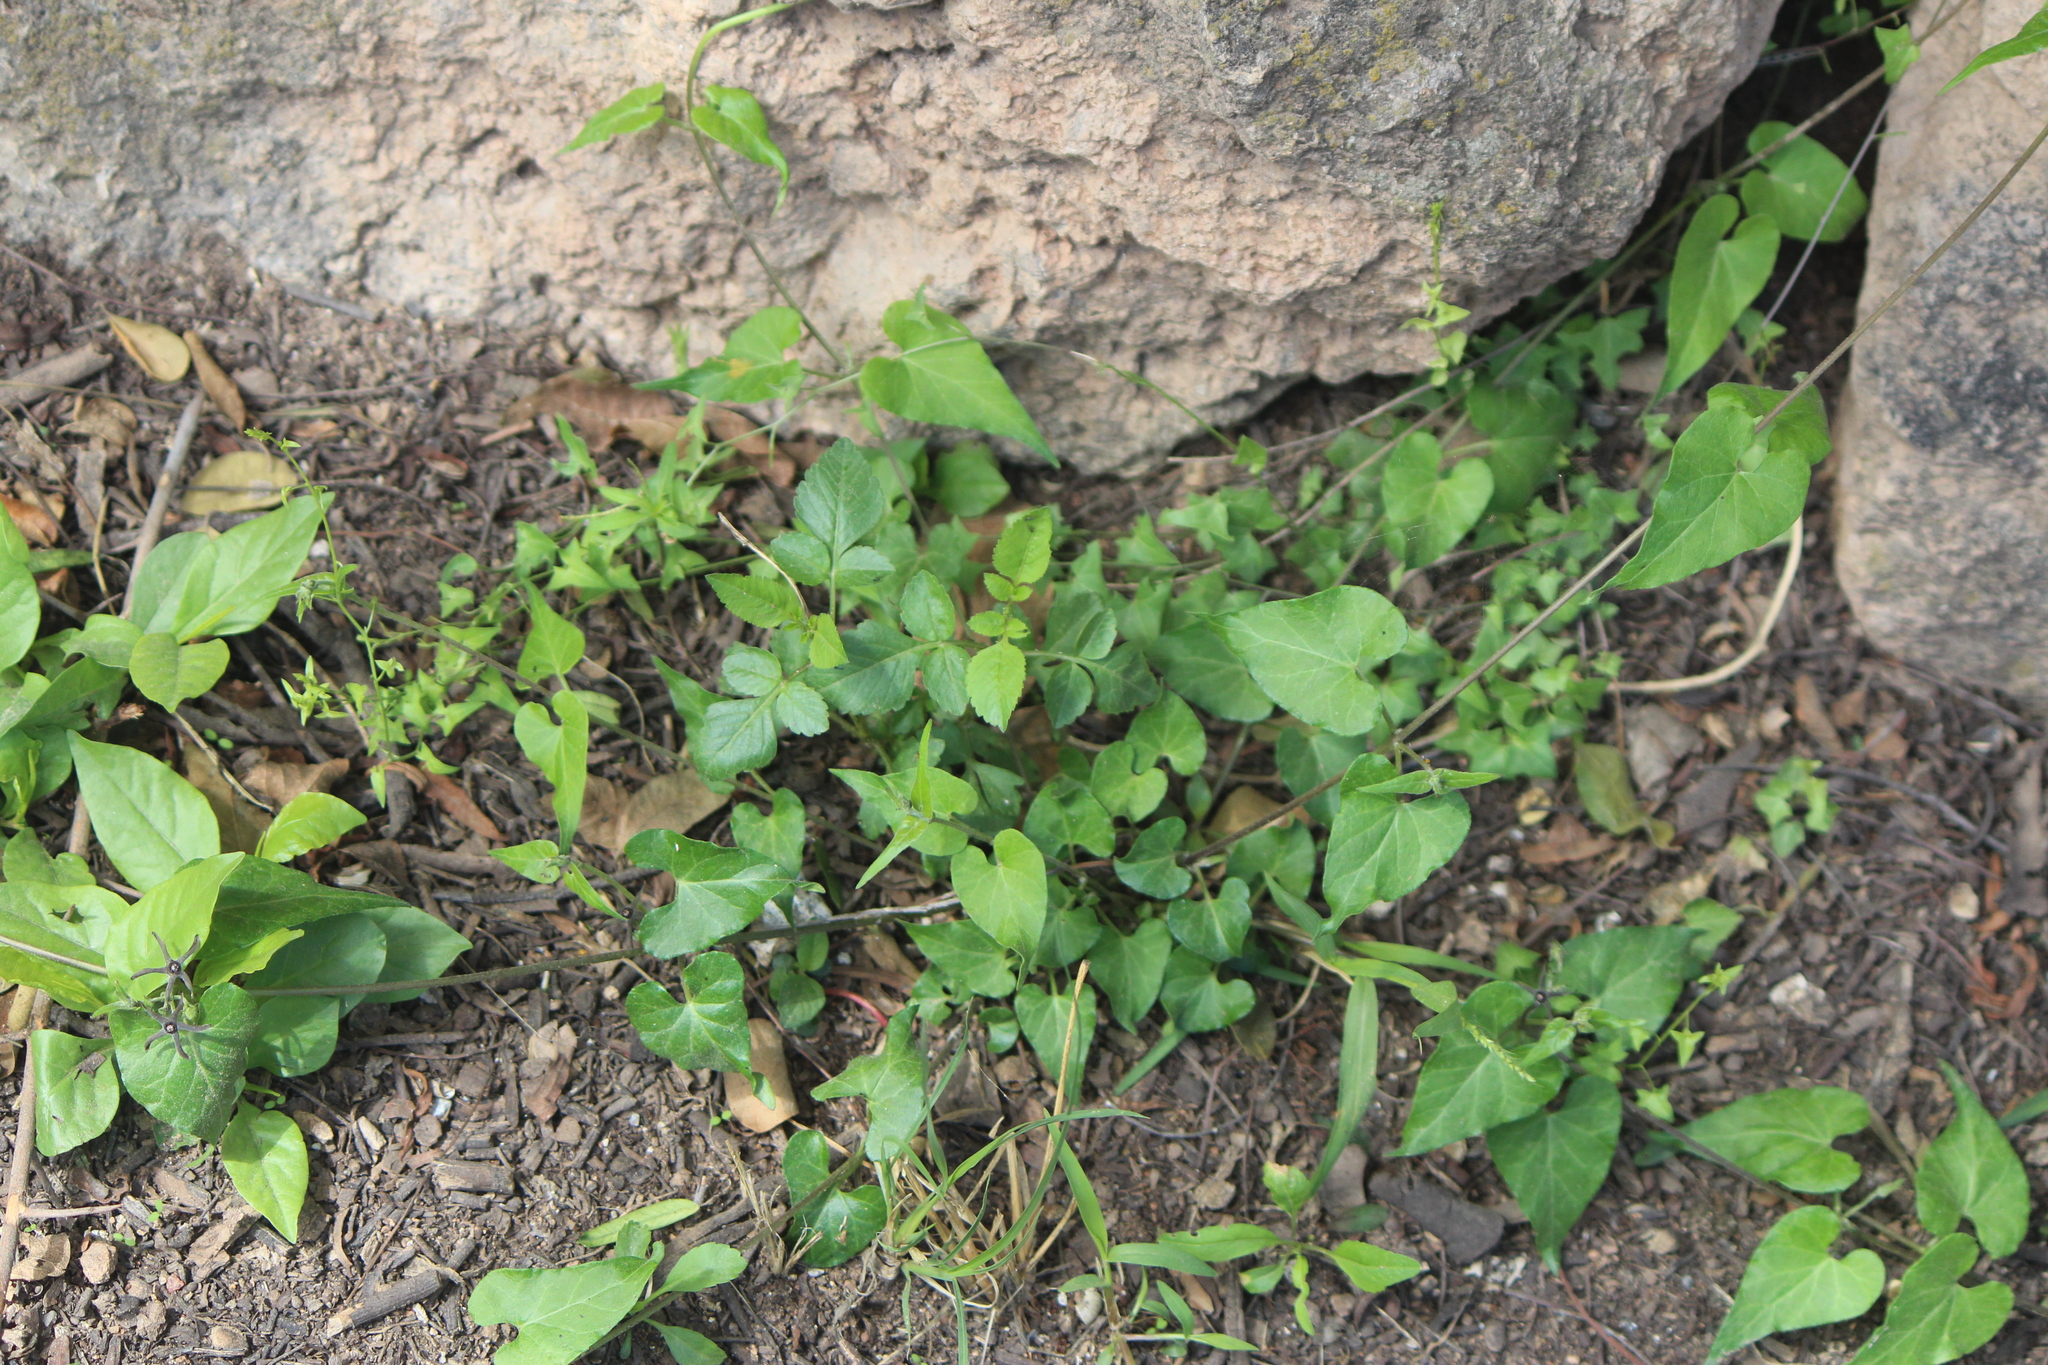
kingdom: Plantae
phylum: Tracheophyta
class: Magnoliopsida
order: Gentianales
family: Apocynaceae
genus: Chthamalia
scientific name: Chthamalia ojadapantha
